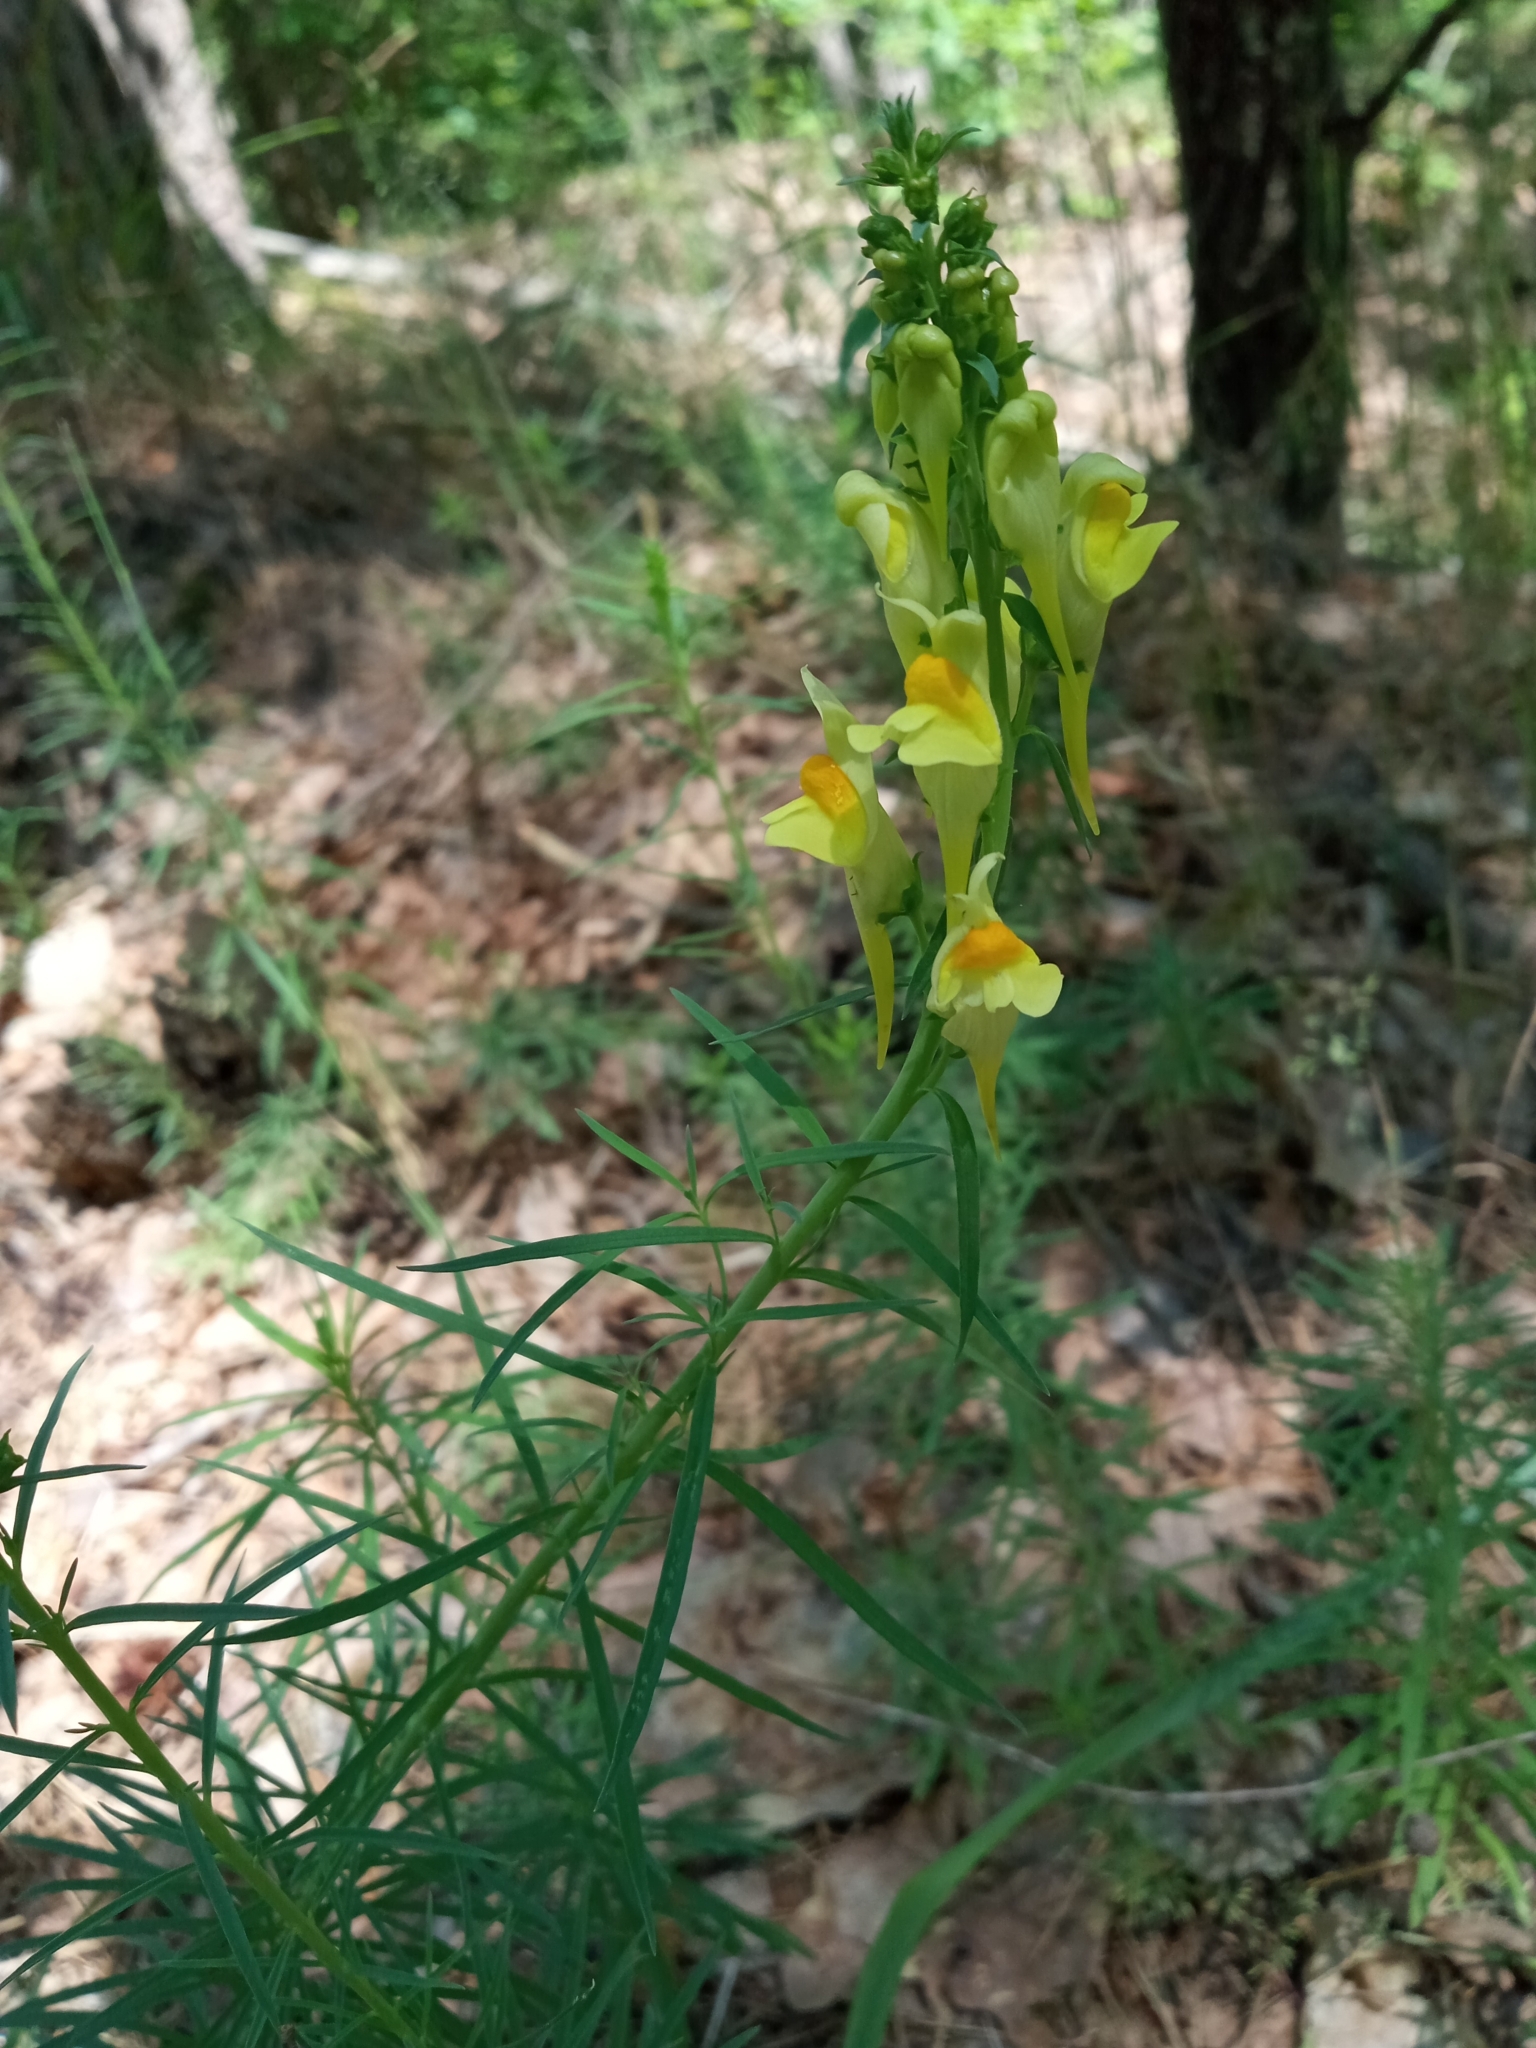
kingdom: Plantae
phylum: Tracheophyta
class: Magnoliopsida
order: Lamiales
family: Plantaginaceae
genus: Linaria
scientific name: Linaria vulgaris
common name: Butter and eggs
